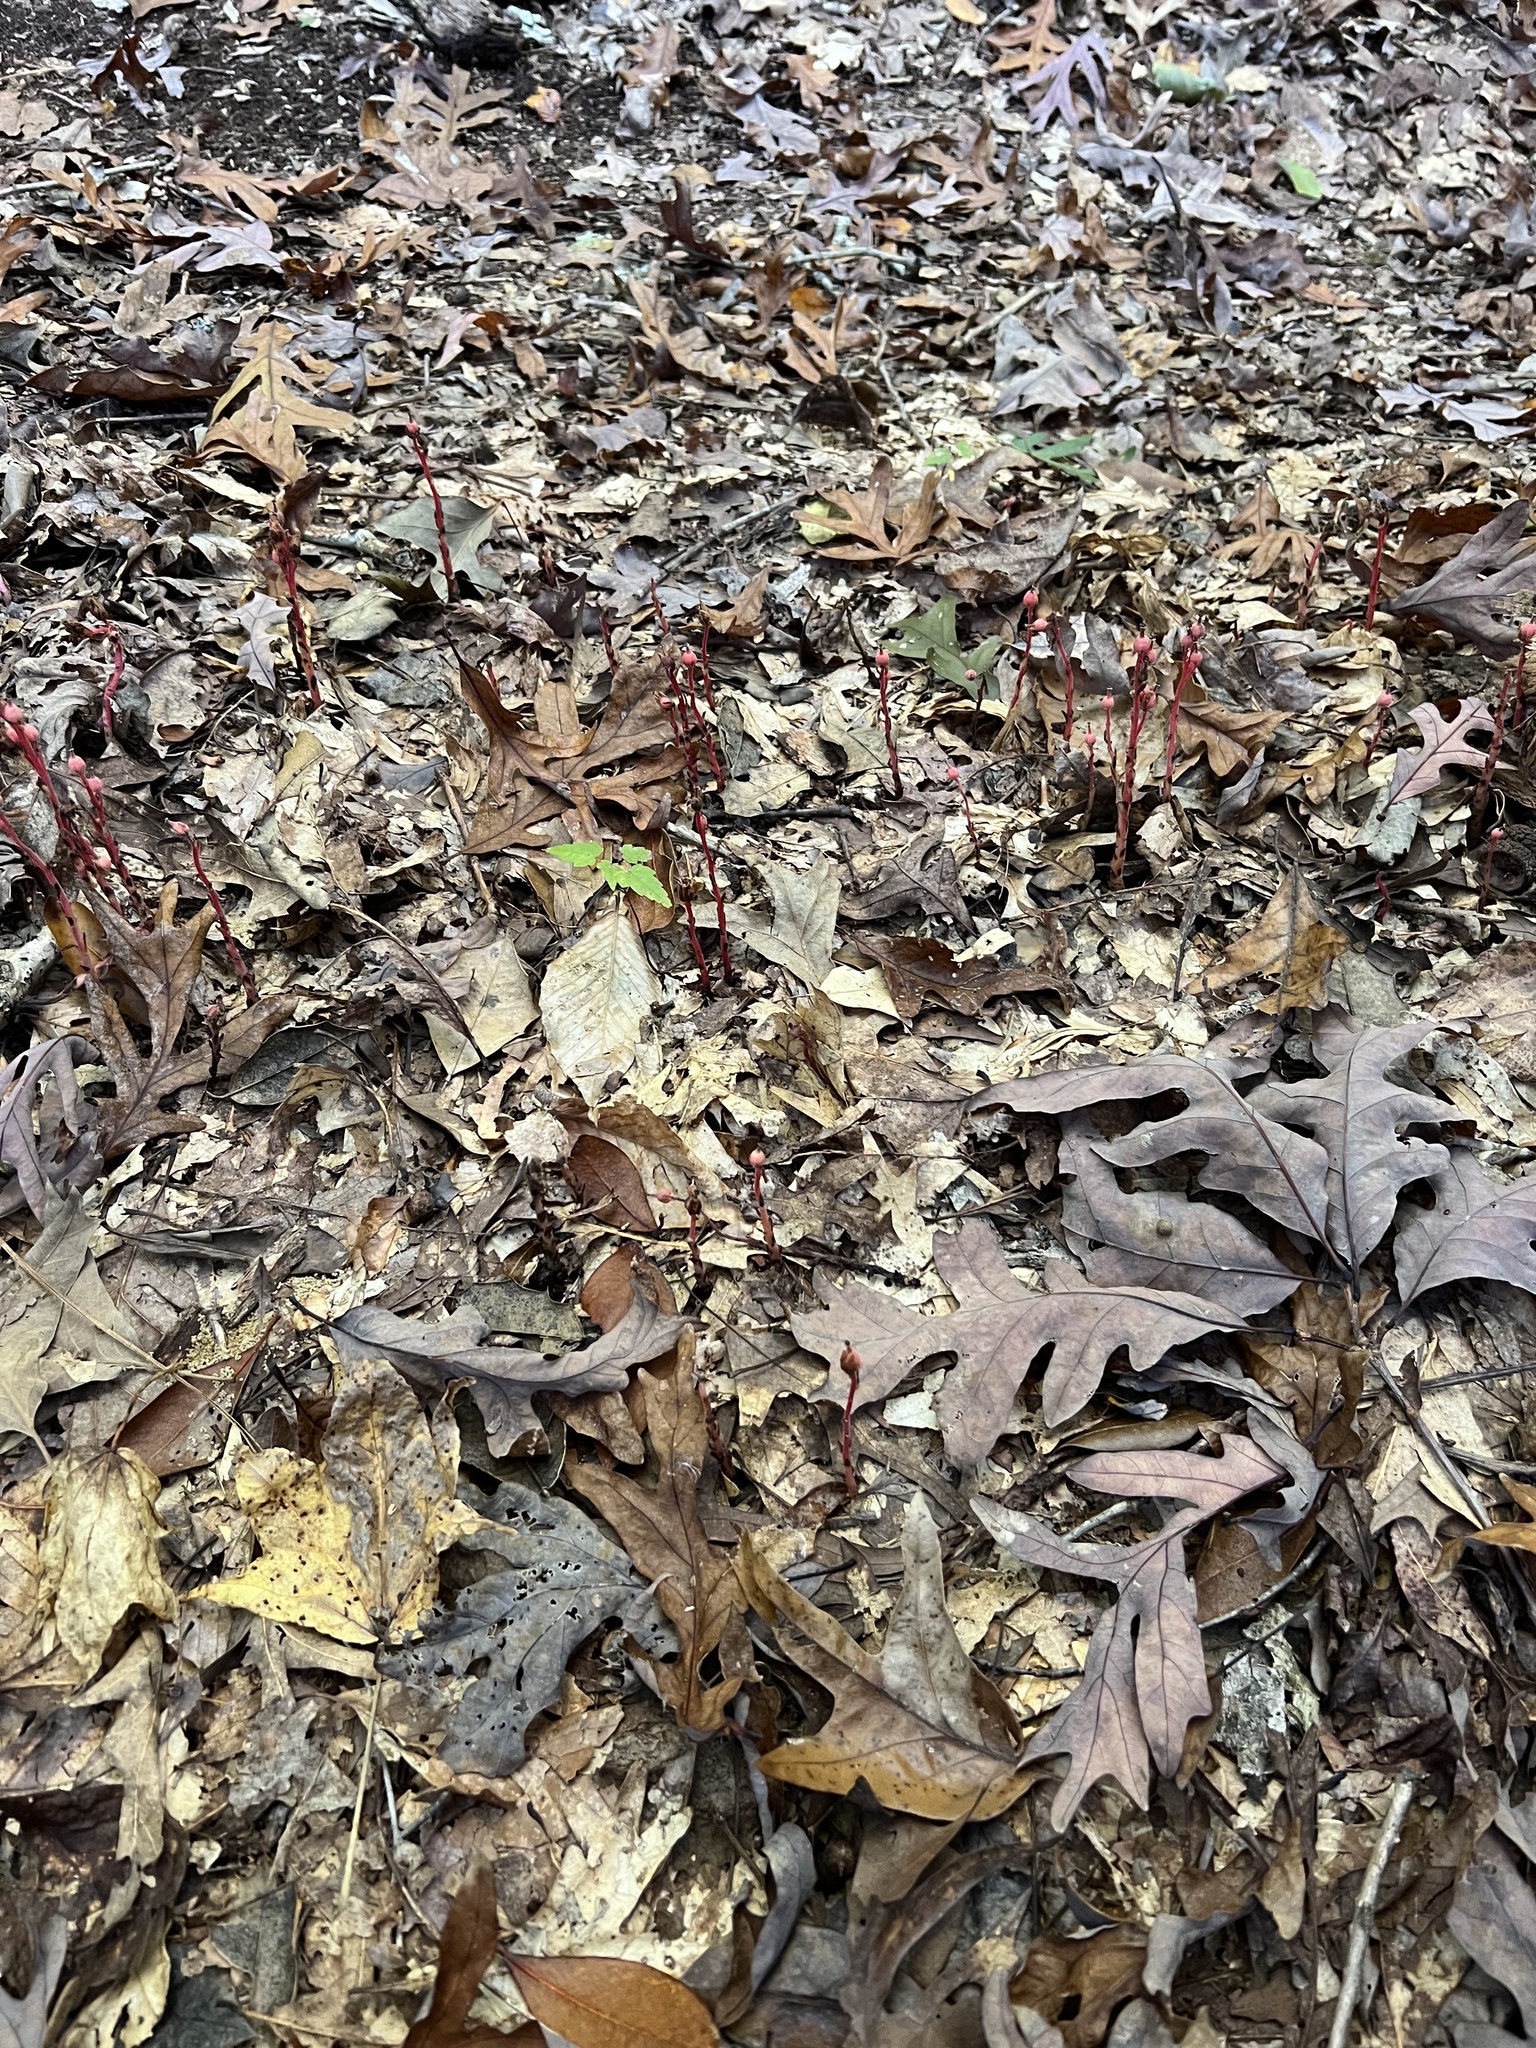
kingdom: Plantae
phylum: Tracheophyta
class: Magnoliopsida
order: Ericales
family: Ericaceae
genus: Hypopitys
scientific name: Hypopitys monotropa
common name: Yellow bird's-nest
